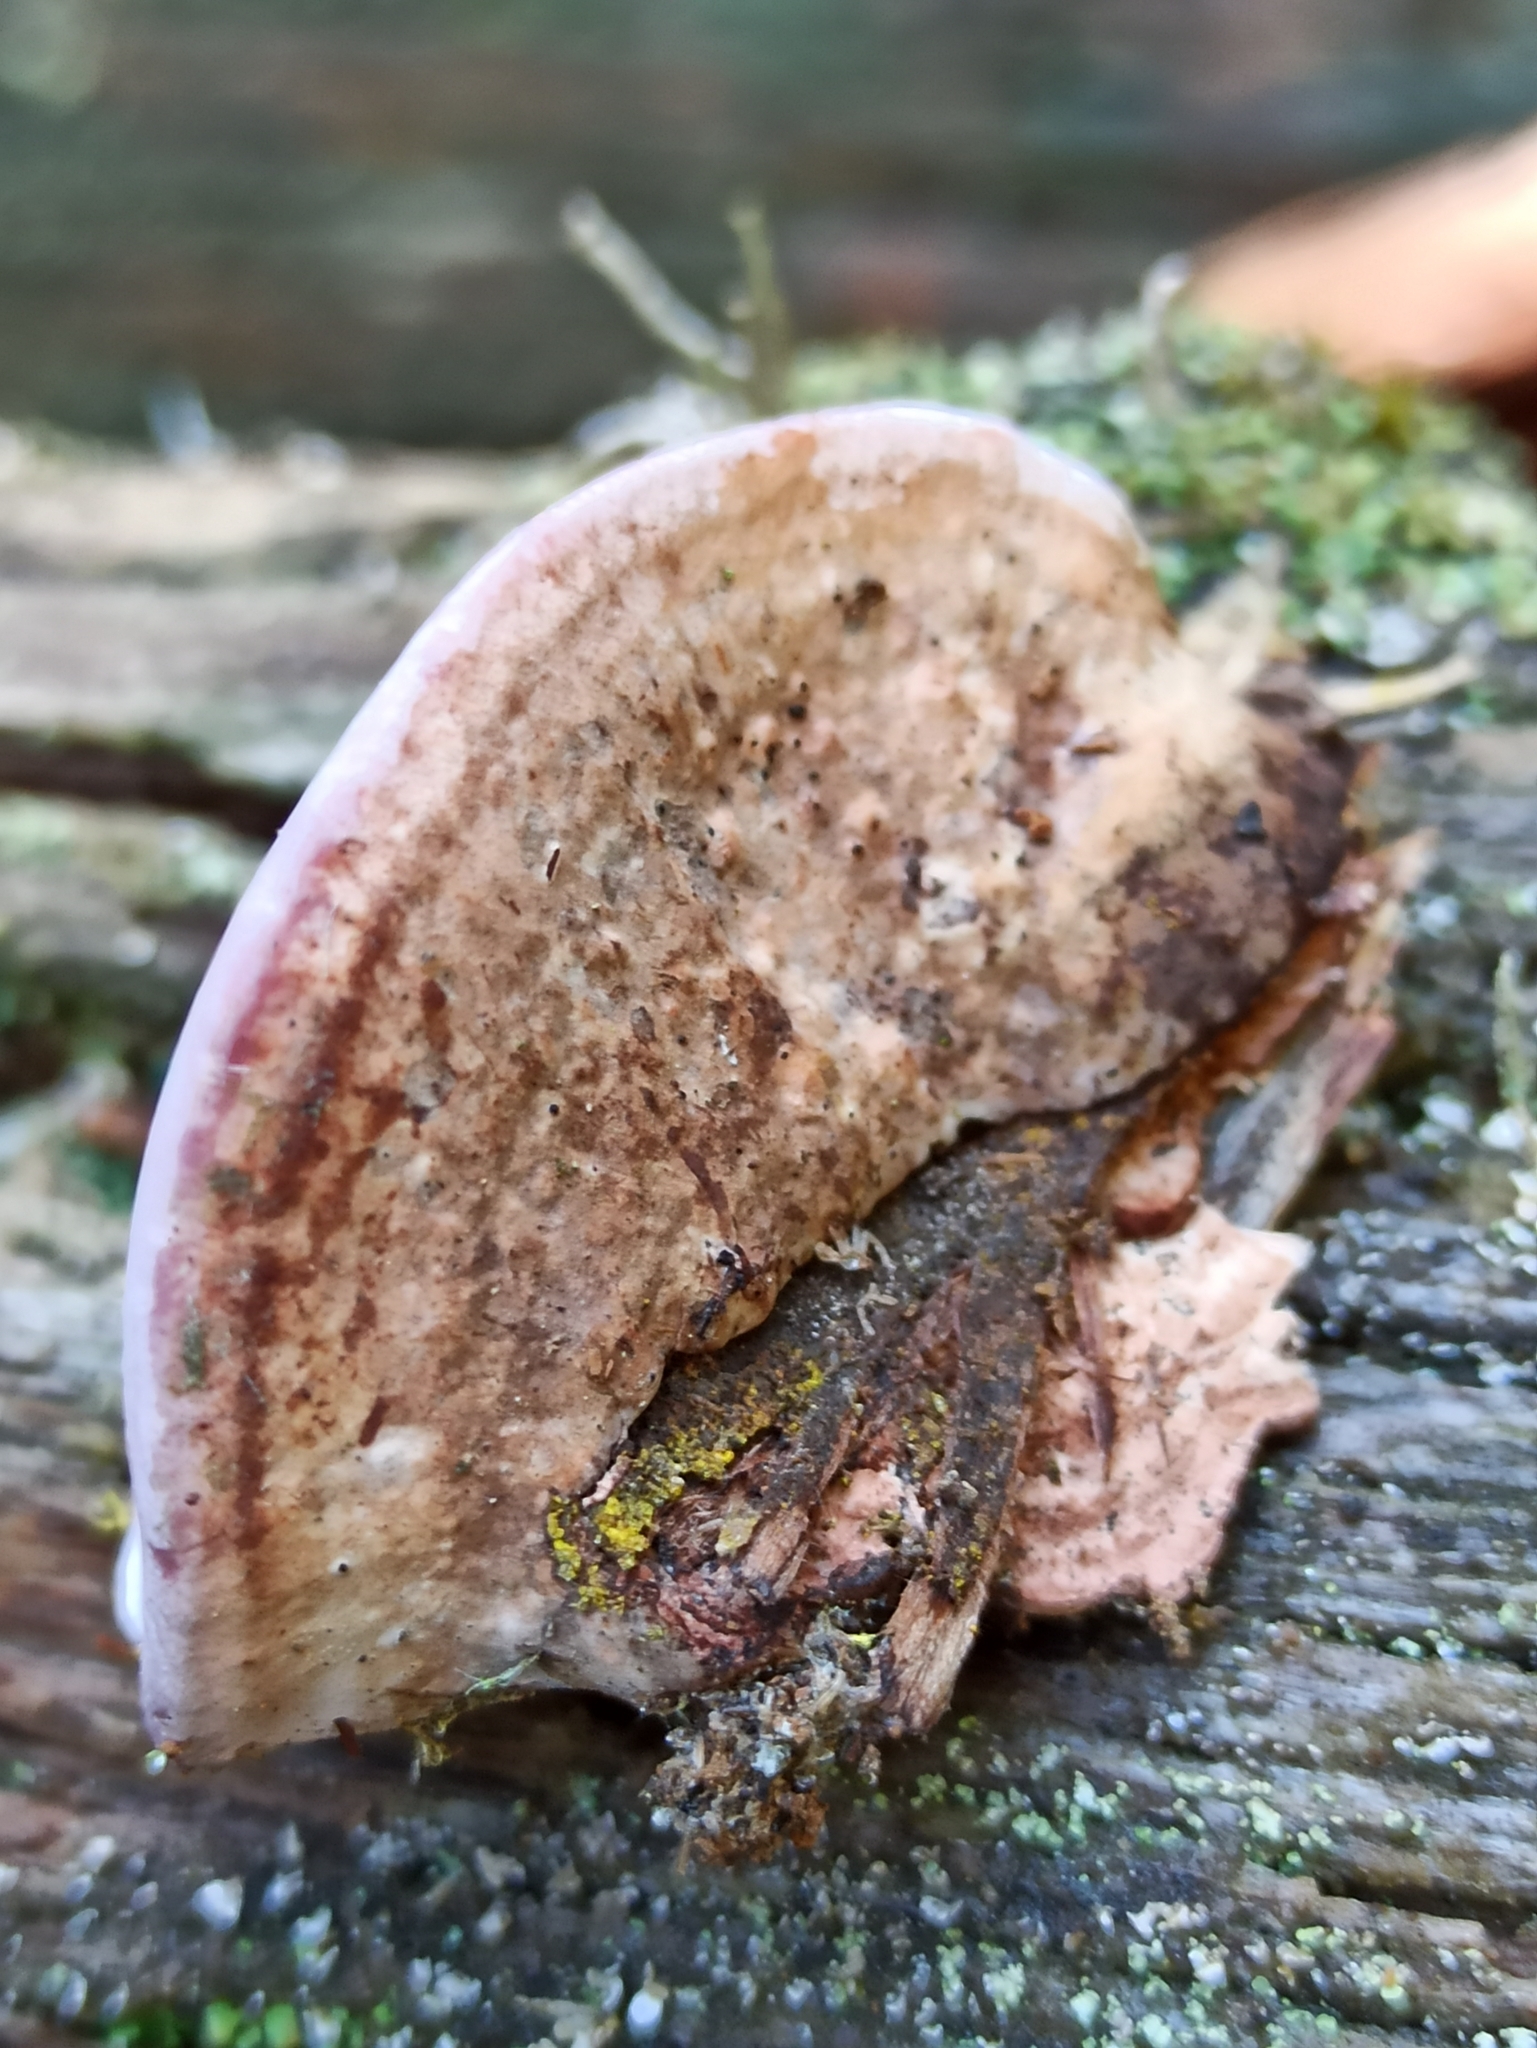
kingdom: Fungi
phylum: Basidiomycota
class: Agaricomycetes
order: Polyporales
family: Fomitopsidaceae
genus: Rhodofomes
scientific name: Rhodofomes roseus
